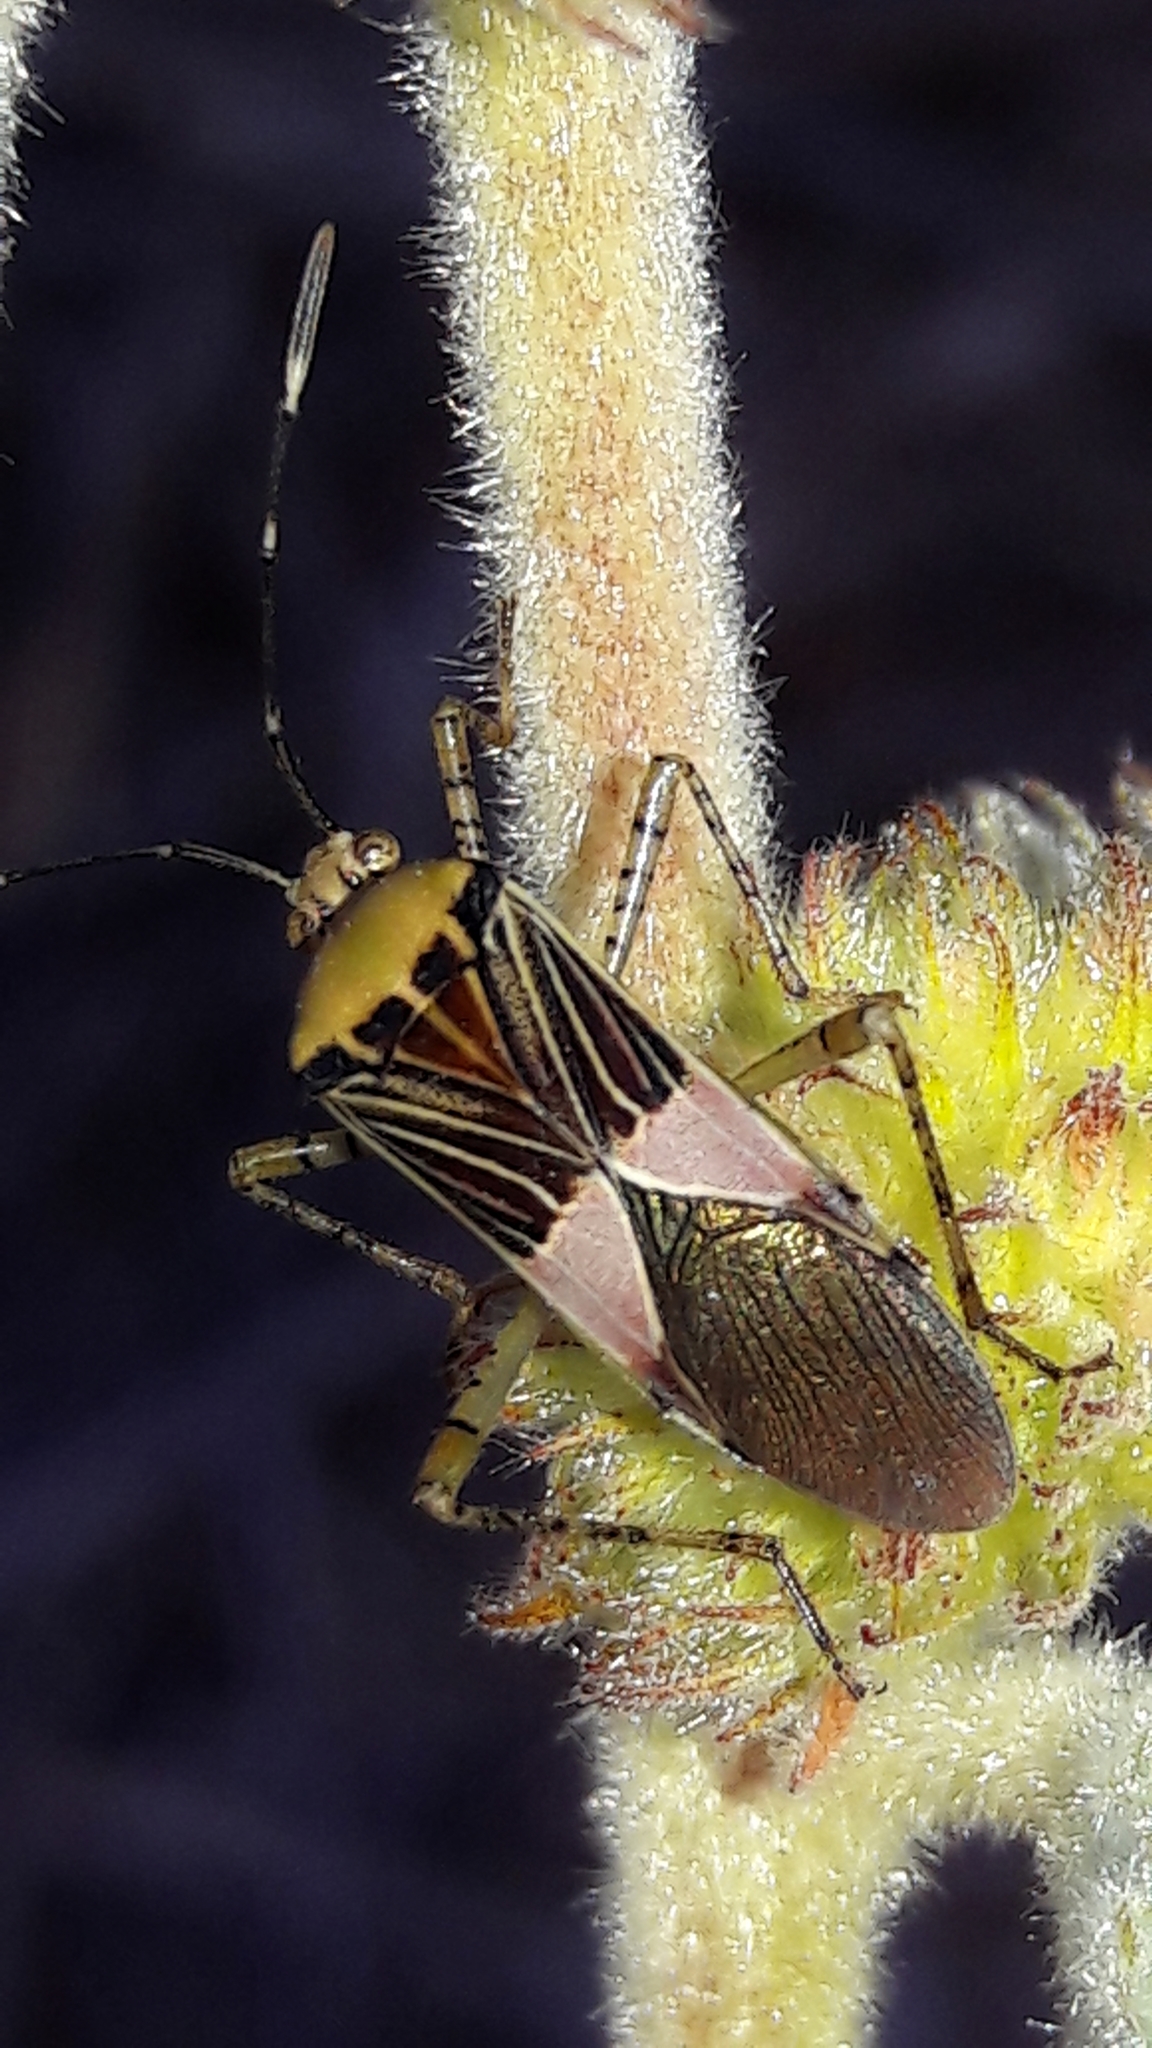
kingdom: Animalia
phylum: Arthropoda
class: Insecta
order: Hemiptera
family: Coreidae
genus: Hypselonotus
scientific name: Hypselonotus fulvus
